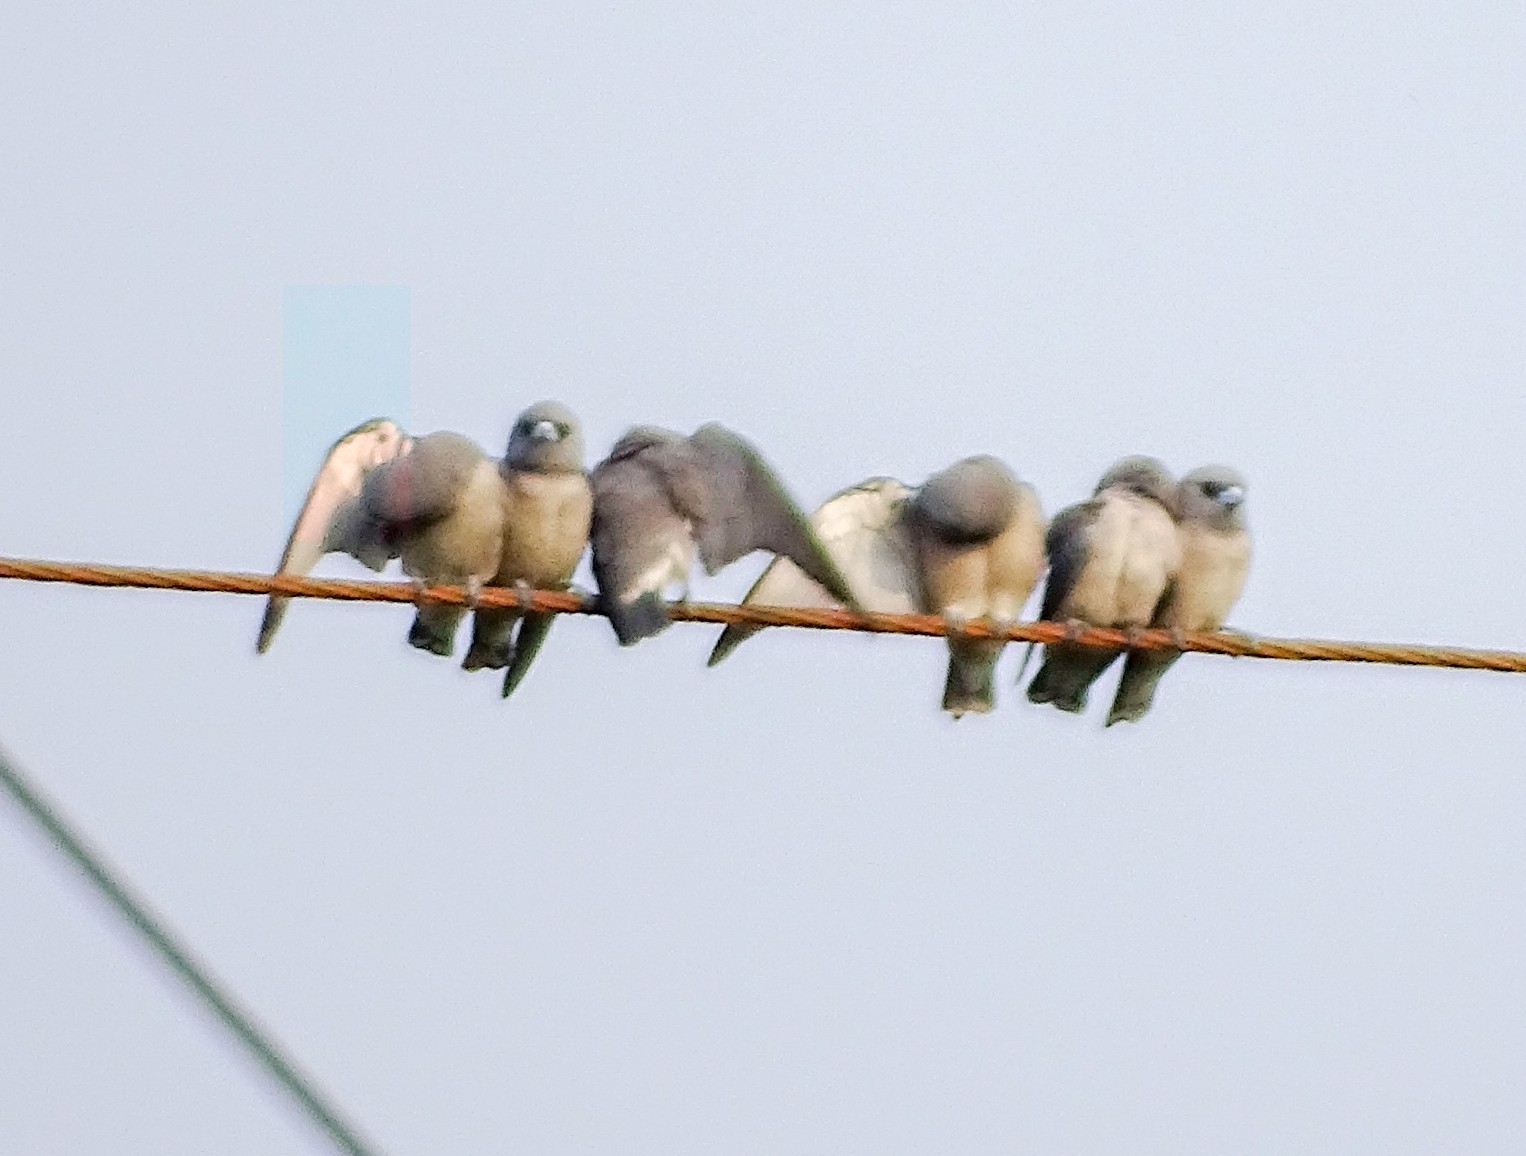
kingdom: Animalia
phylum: Chordata
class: Aves
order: Passeriformes
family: Artamidae
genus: Artamus
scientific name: Artamus fuscus
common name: Ashy woodswallow
